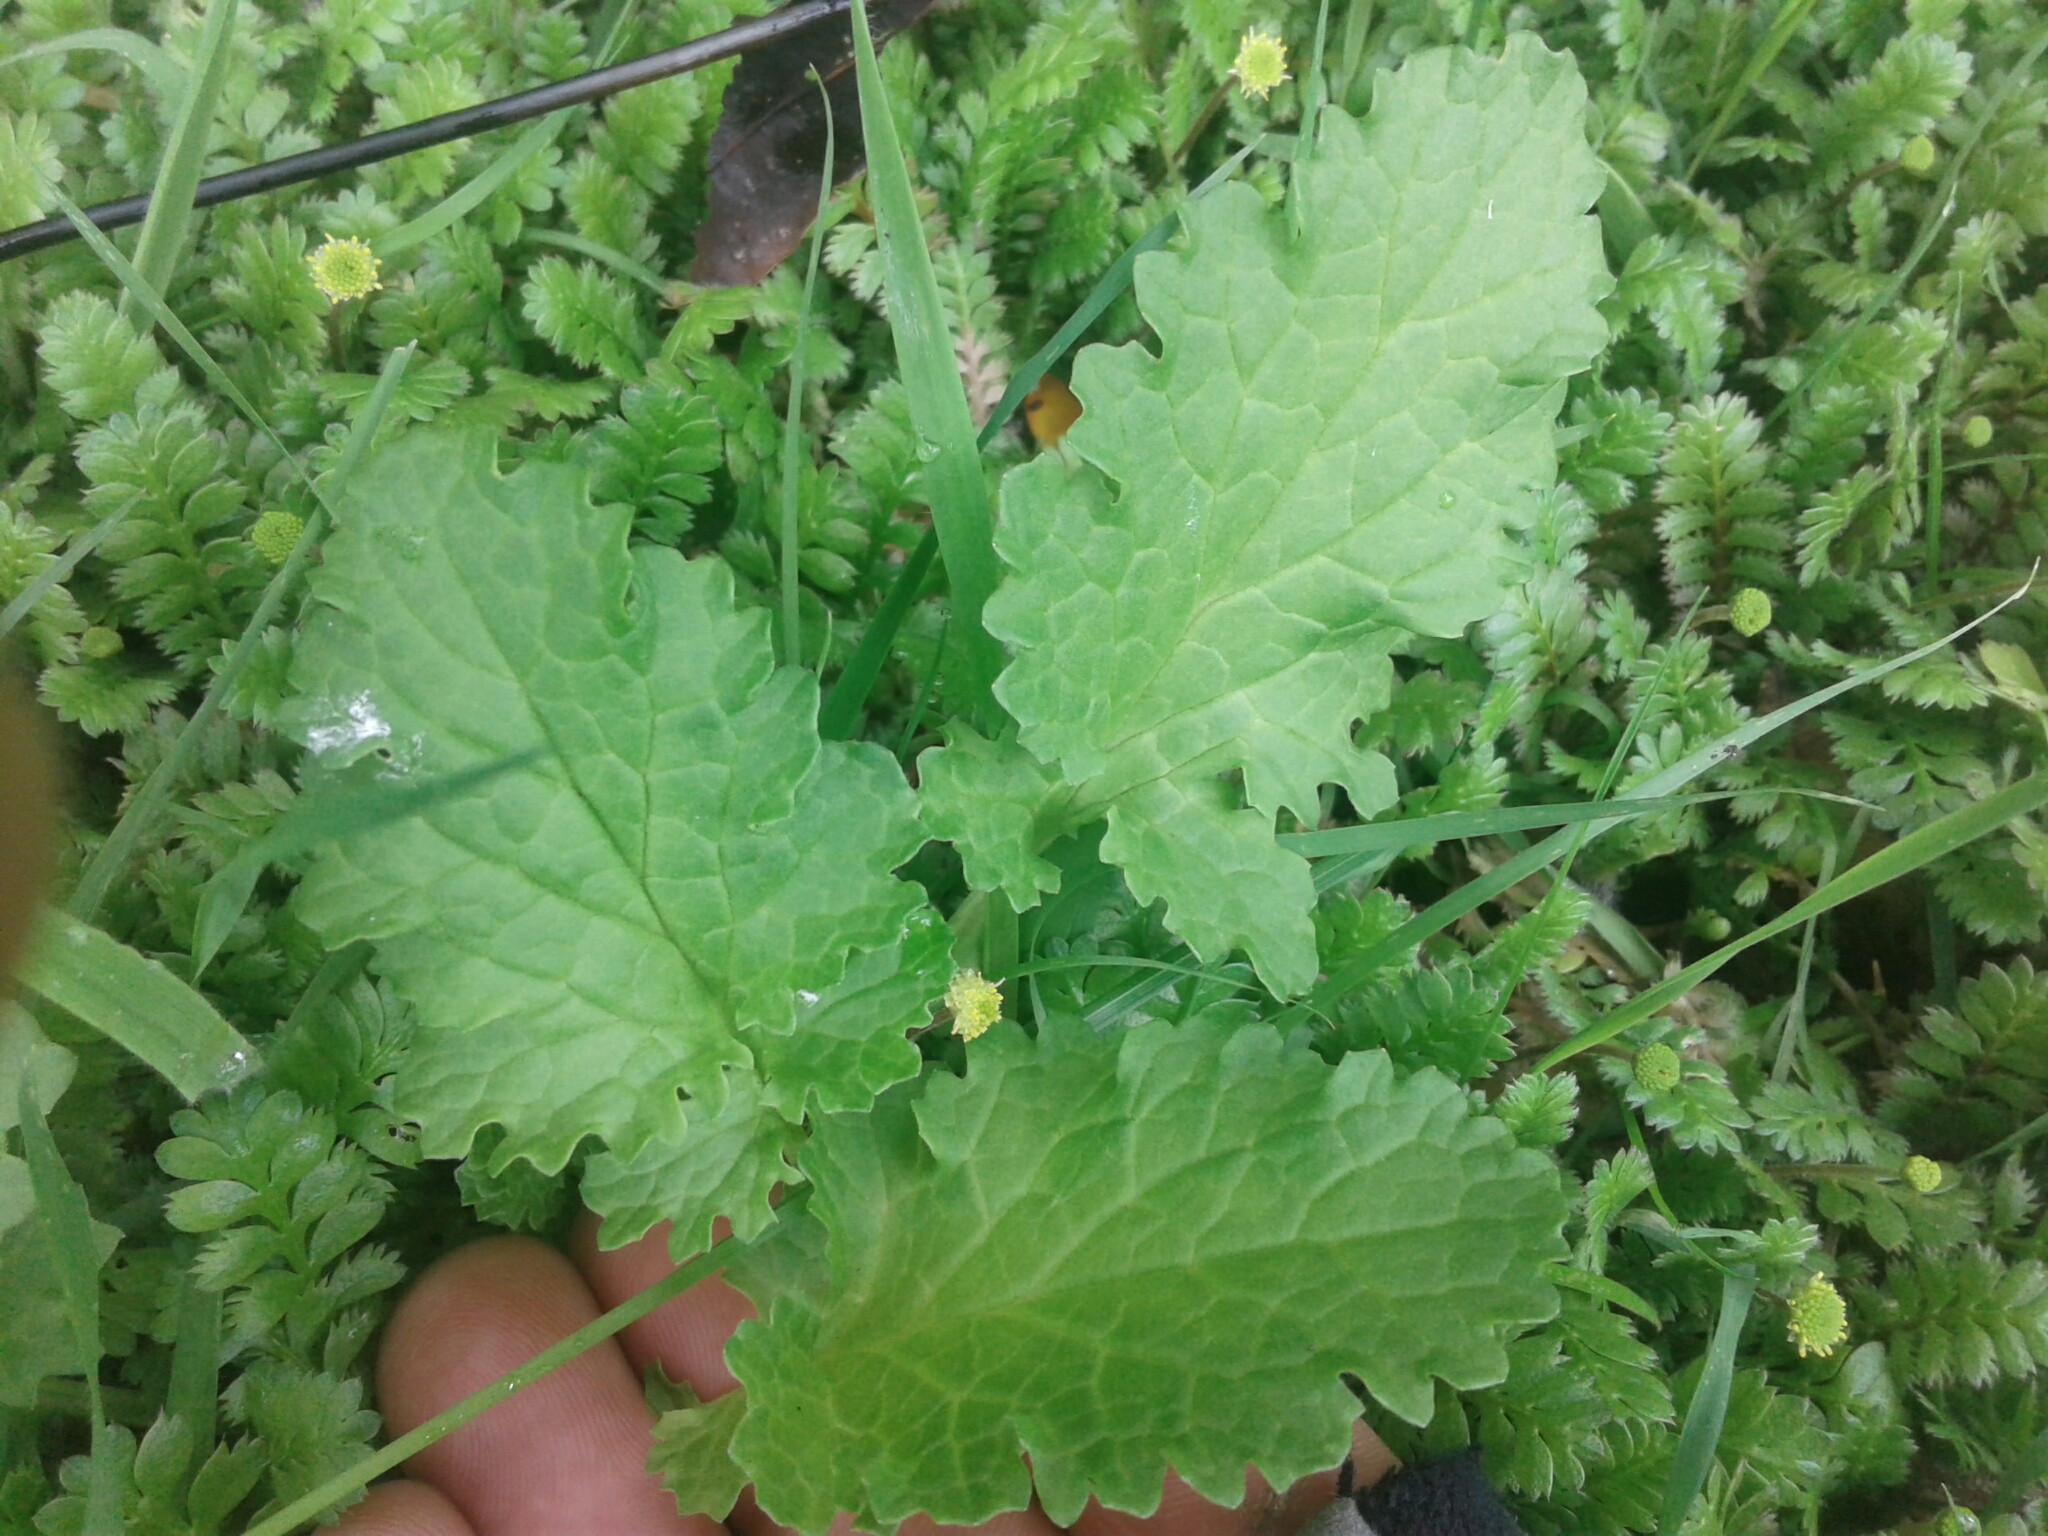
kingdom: Plantae
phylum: Tracheophyta
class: Magnoliopsida
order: Asterales
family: Asteraceae
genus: Jacobaea
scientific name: Jacobaea vulgaris
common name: Stinking willie
